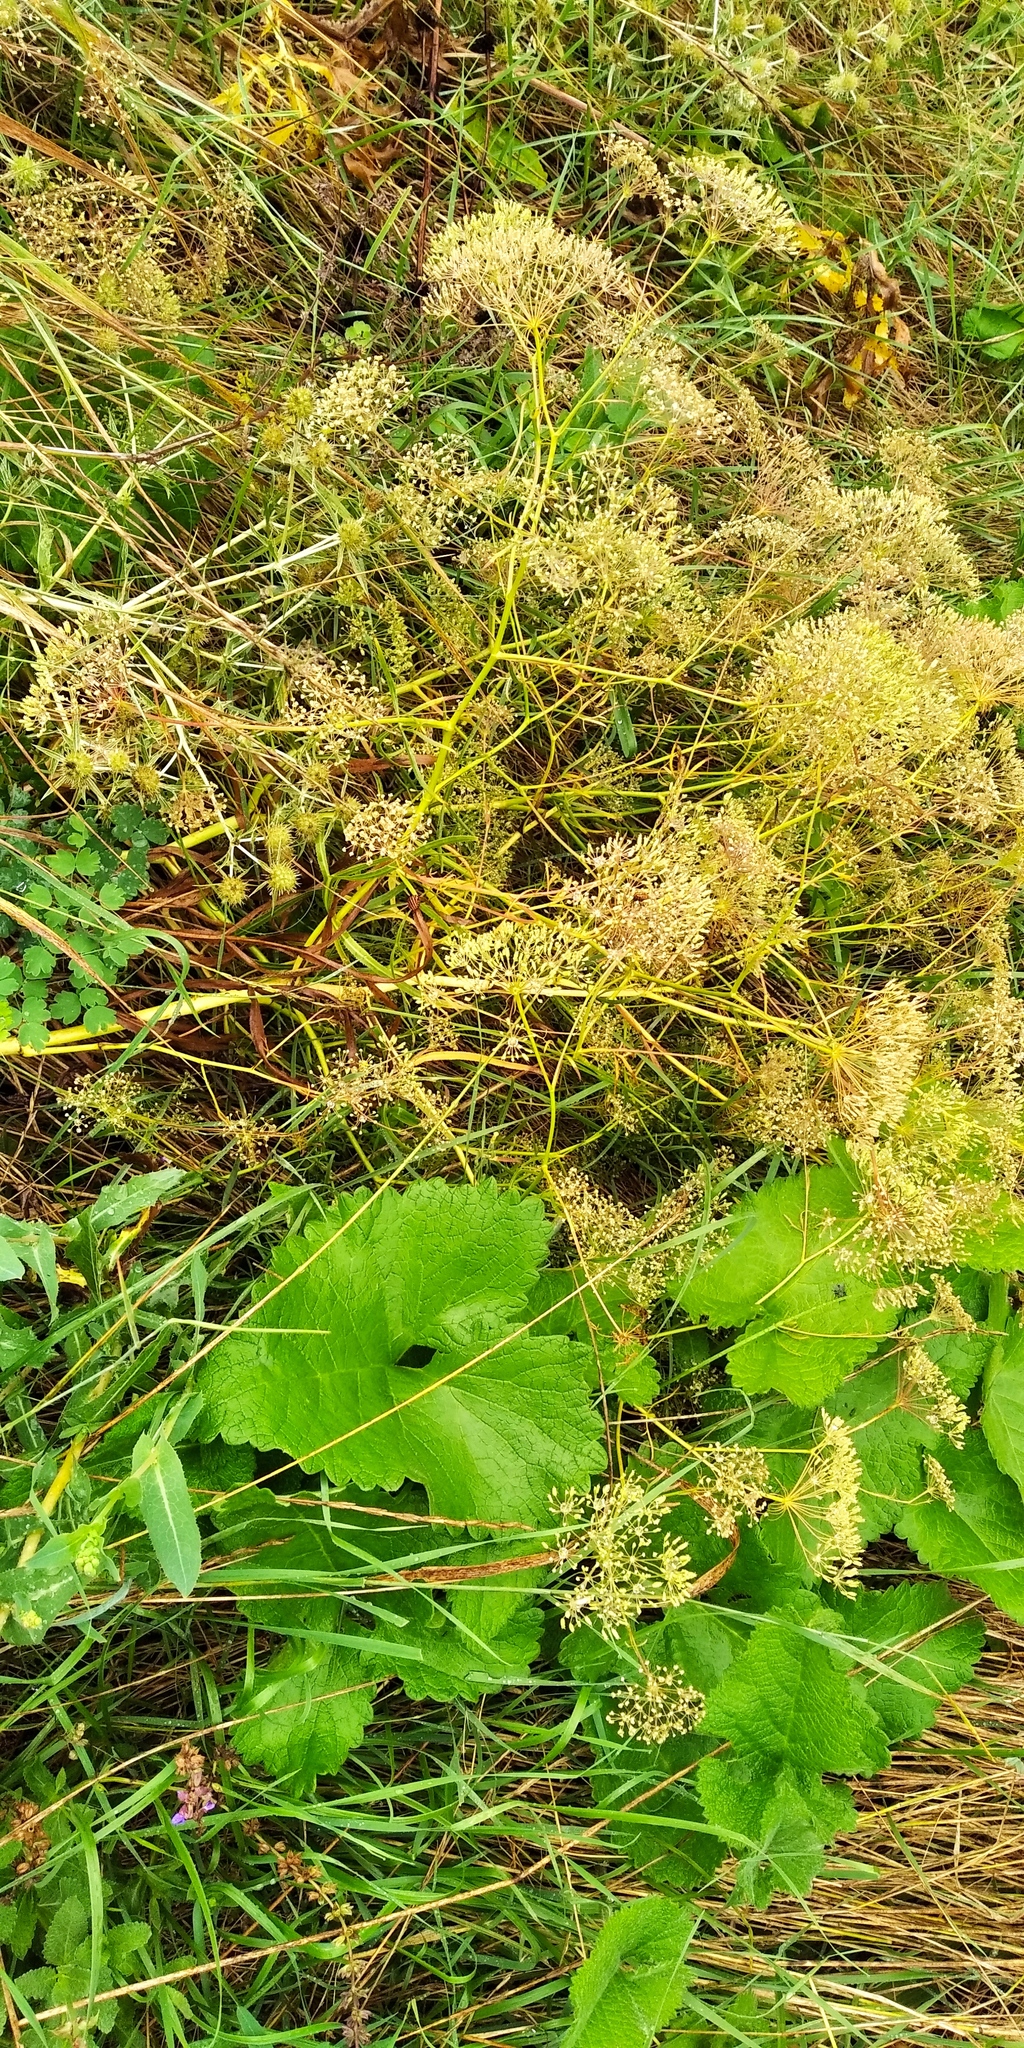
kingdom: Plantae
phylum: Tracheophyta
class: Magnoliopsida
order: Apiales
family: Apiaceae
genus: Falcaria
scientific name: Falcaria vulgaris
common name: Longleaf
